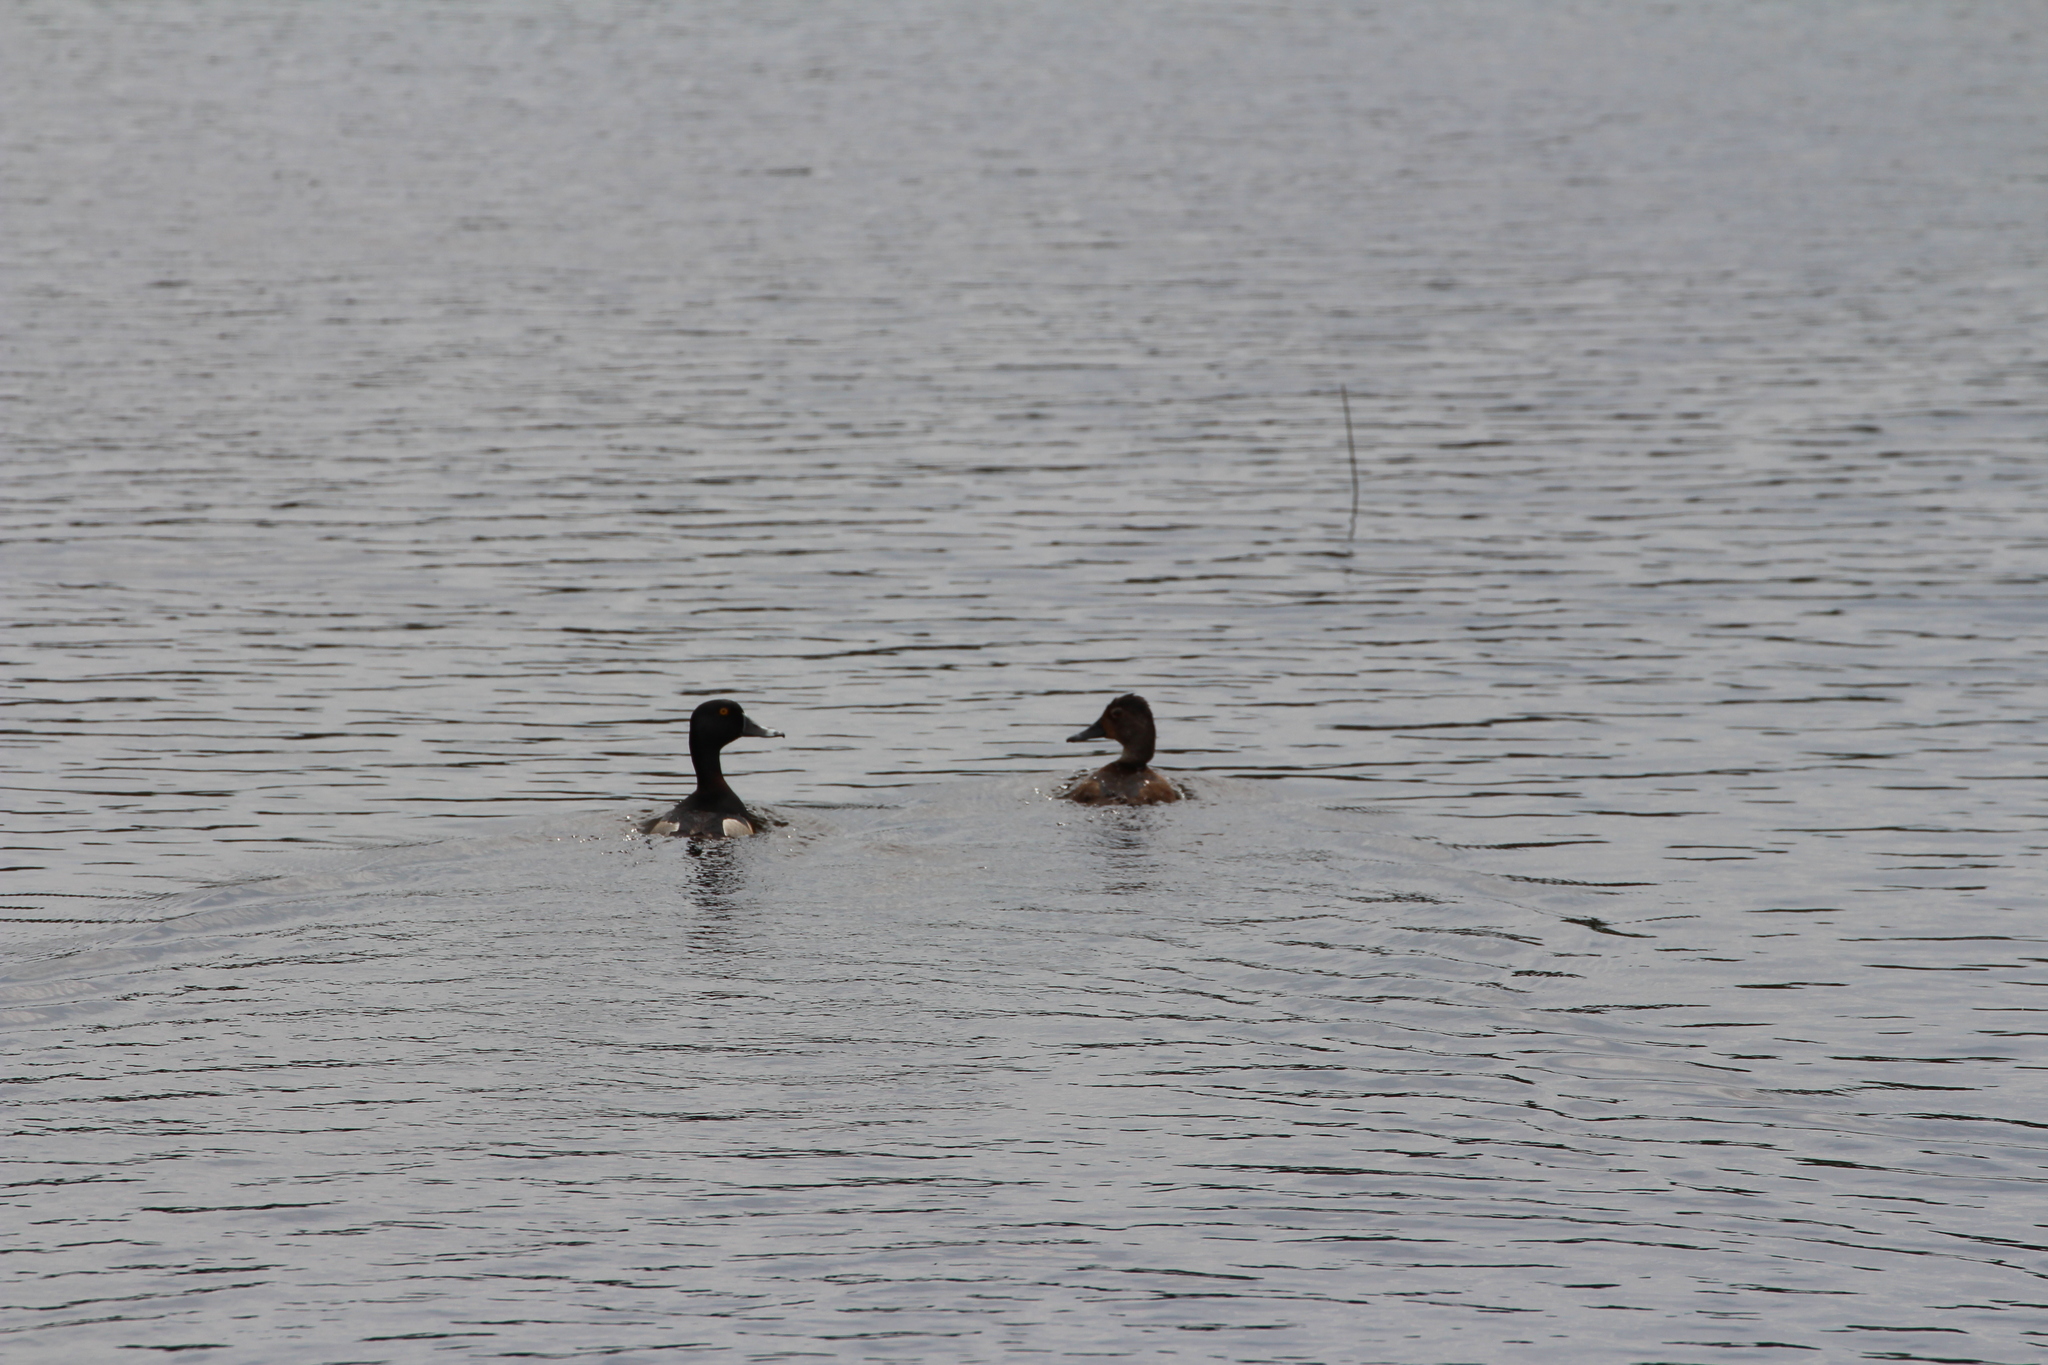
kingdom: Animalia
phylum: Chordata
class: Aves
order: Anseriformes
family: Anatidae
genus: Aythya
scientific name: Aythya collaris
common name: Ring-necked duck
